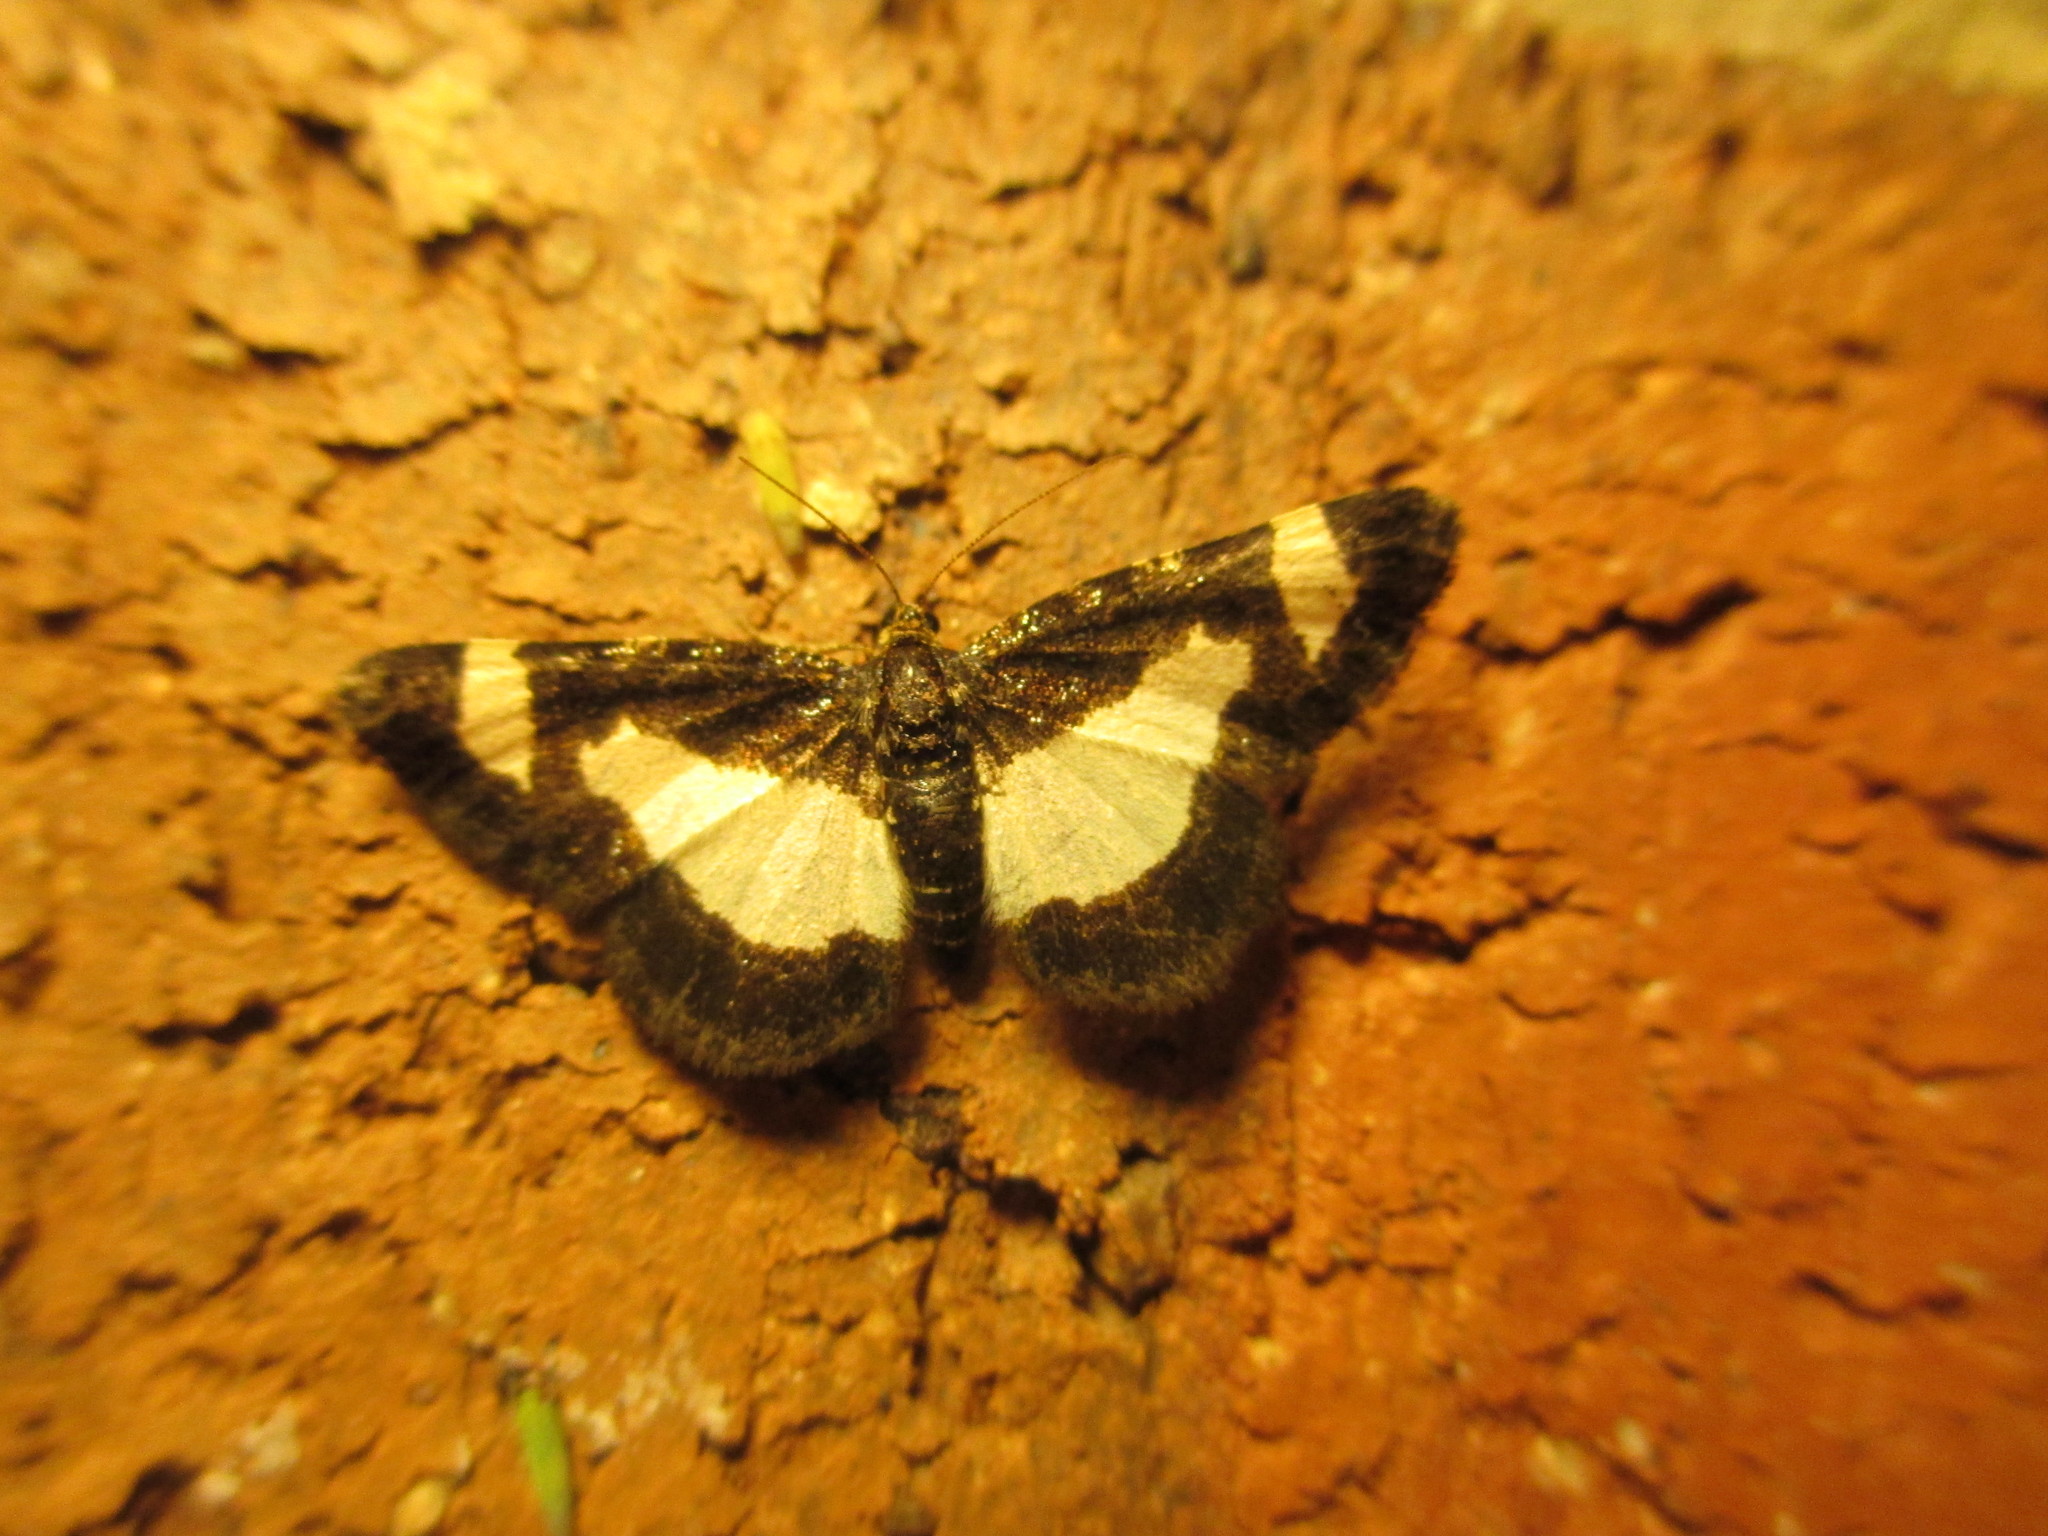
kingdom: Animalia
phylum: Arthropoda
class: Insecta
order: Lepidoptera
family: Geometridae
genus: Heliomata
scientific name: Heliomata cycladata
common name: Common spring moth
